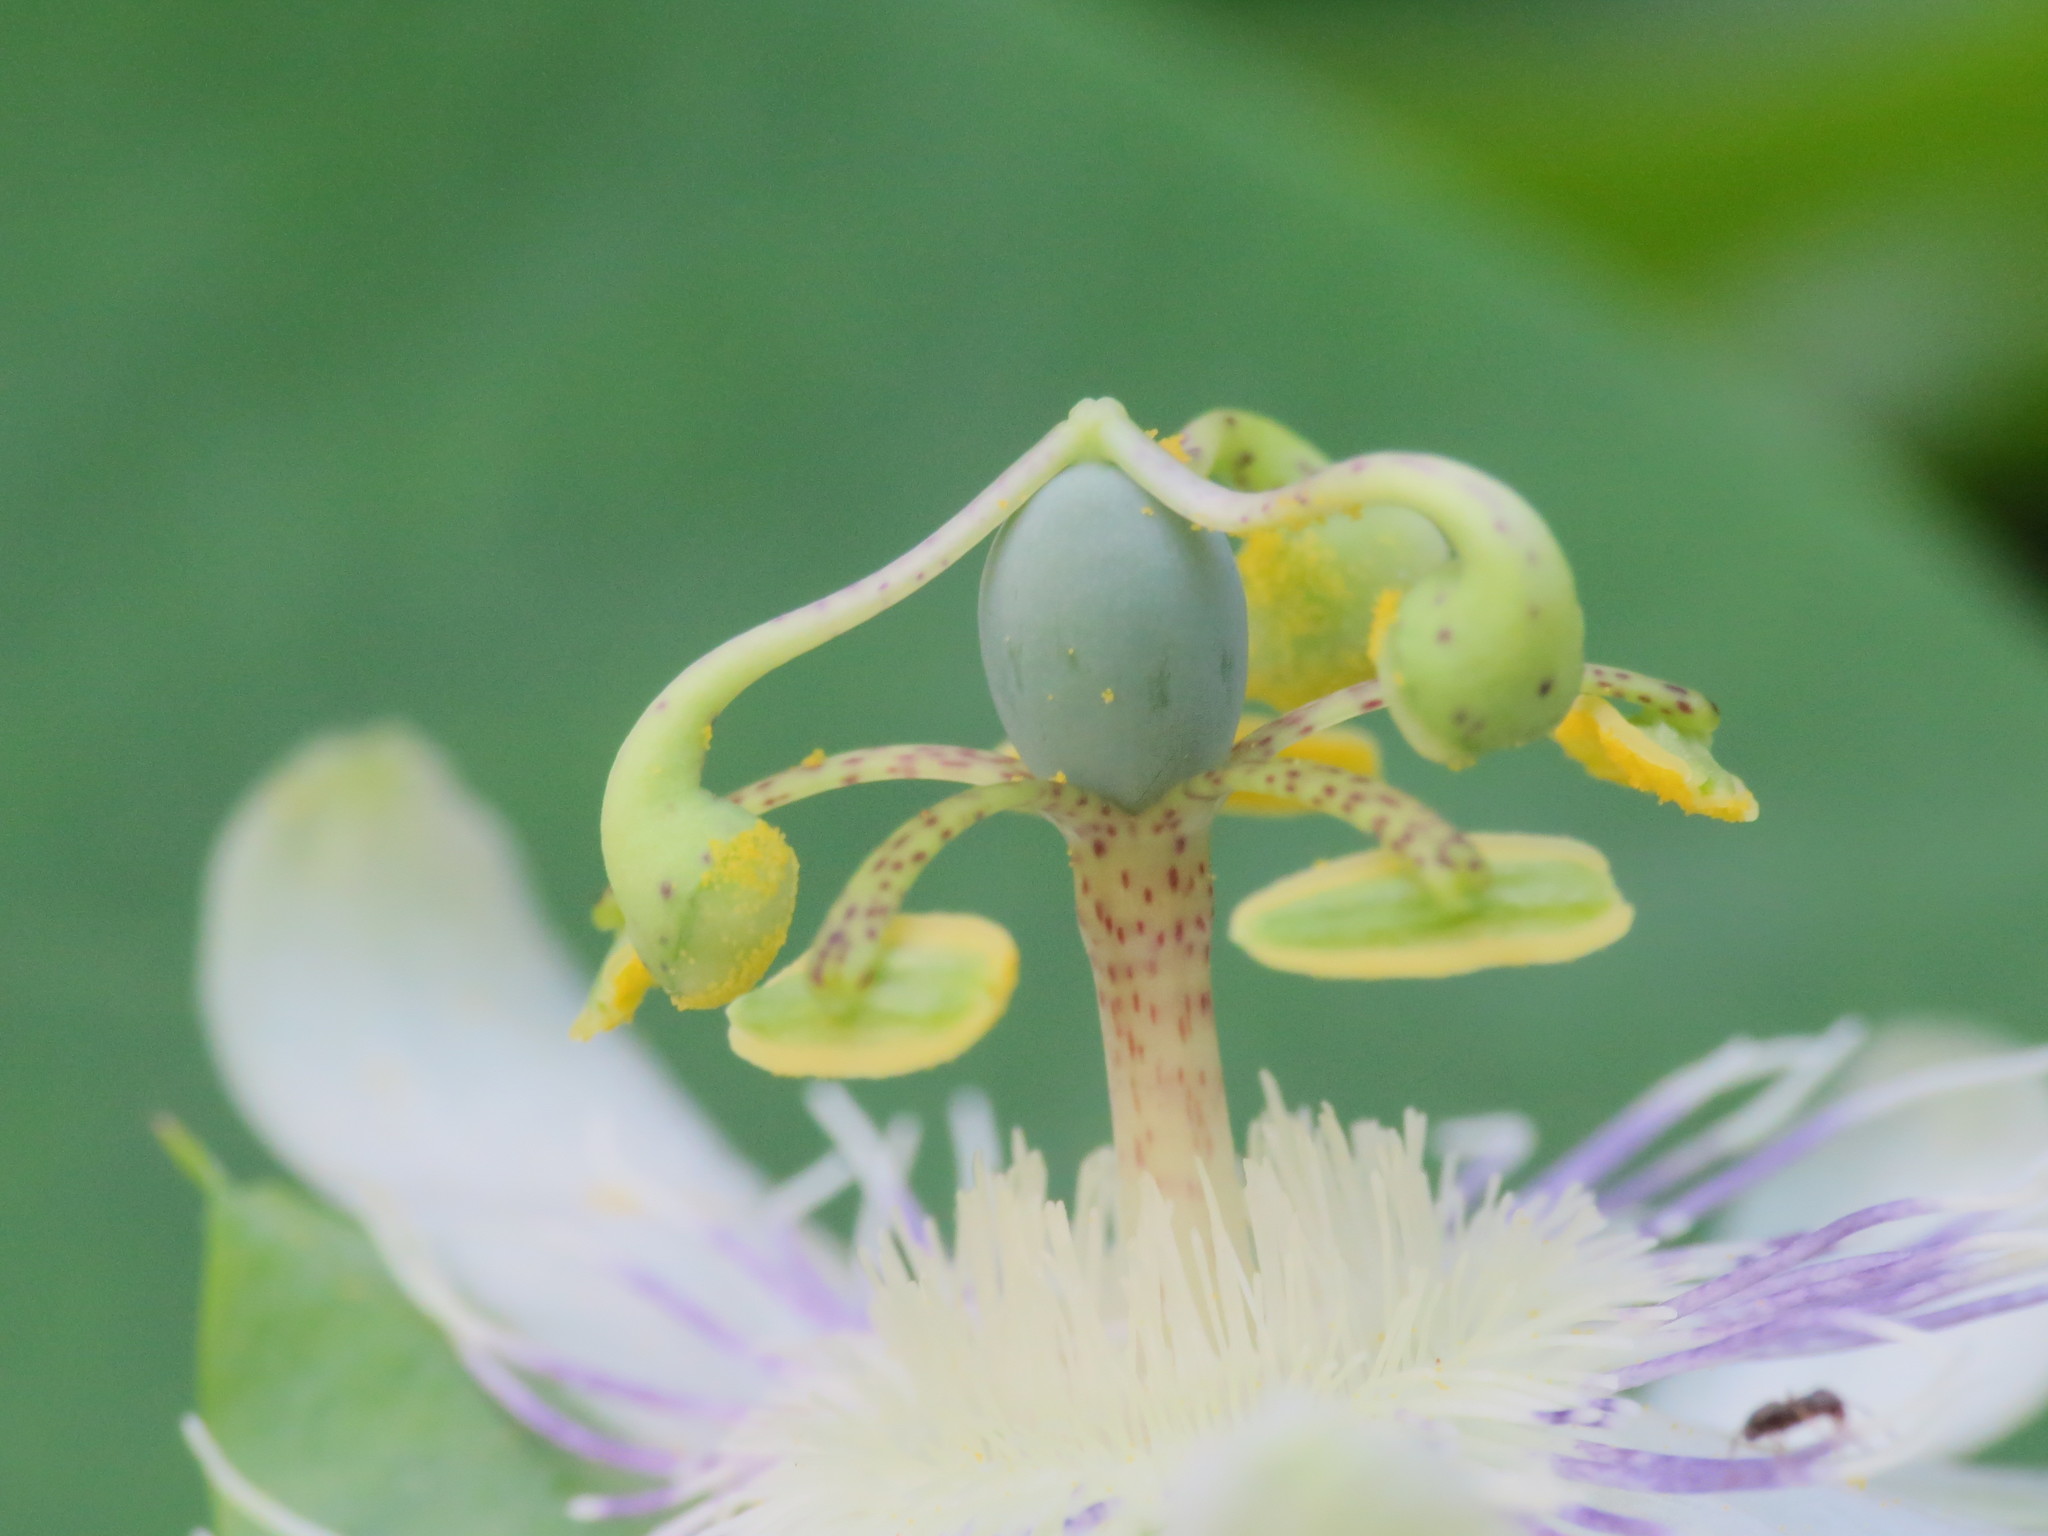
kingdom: Plantae
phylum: Tracheophyta
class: Magnoliopsida
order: Malpighiales
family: Passifloraceae
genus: Passiflora
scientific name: Passiflora tenuifila
